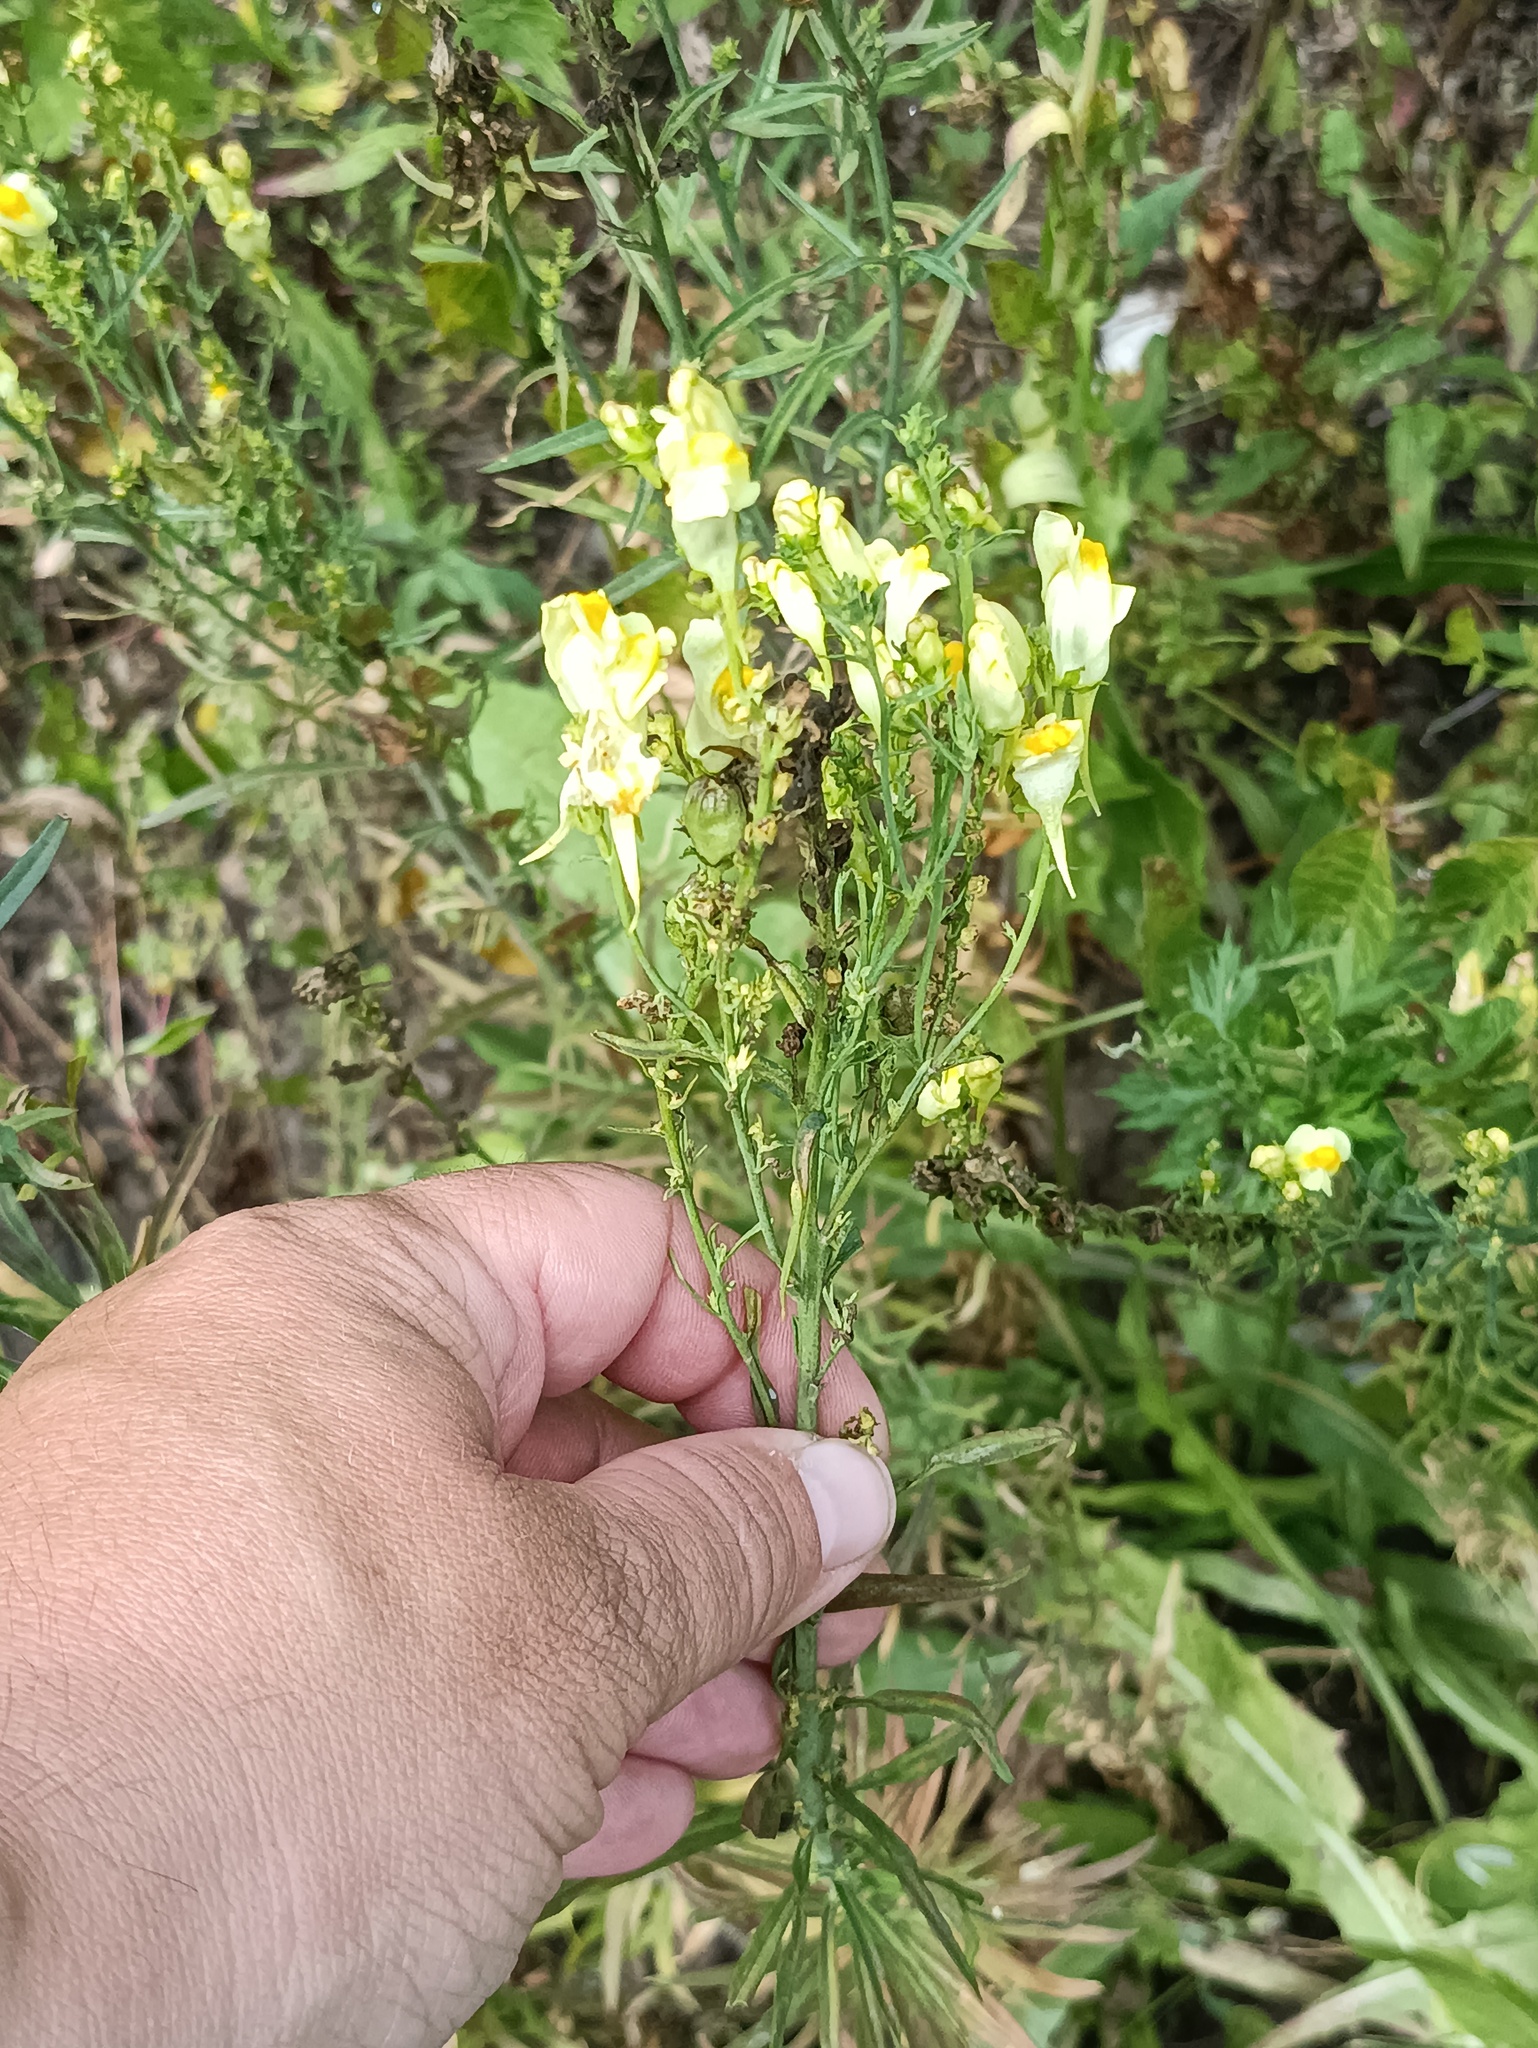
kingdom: Plantae
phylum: Tracheophyta
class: Magnoliopsida
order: Lamiales
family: Plantaginaceae
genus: Linaria
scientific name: Linaria vulgaris
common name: Butter and eggs
